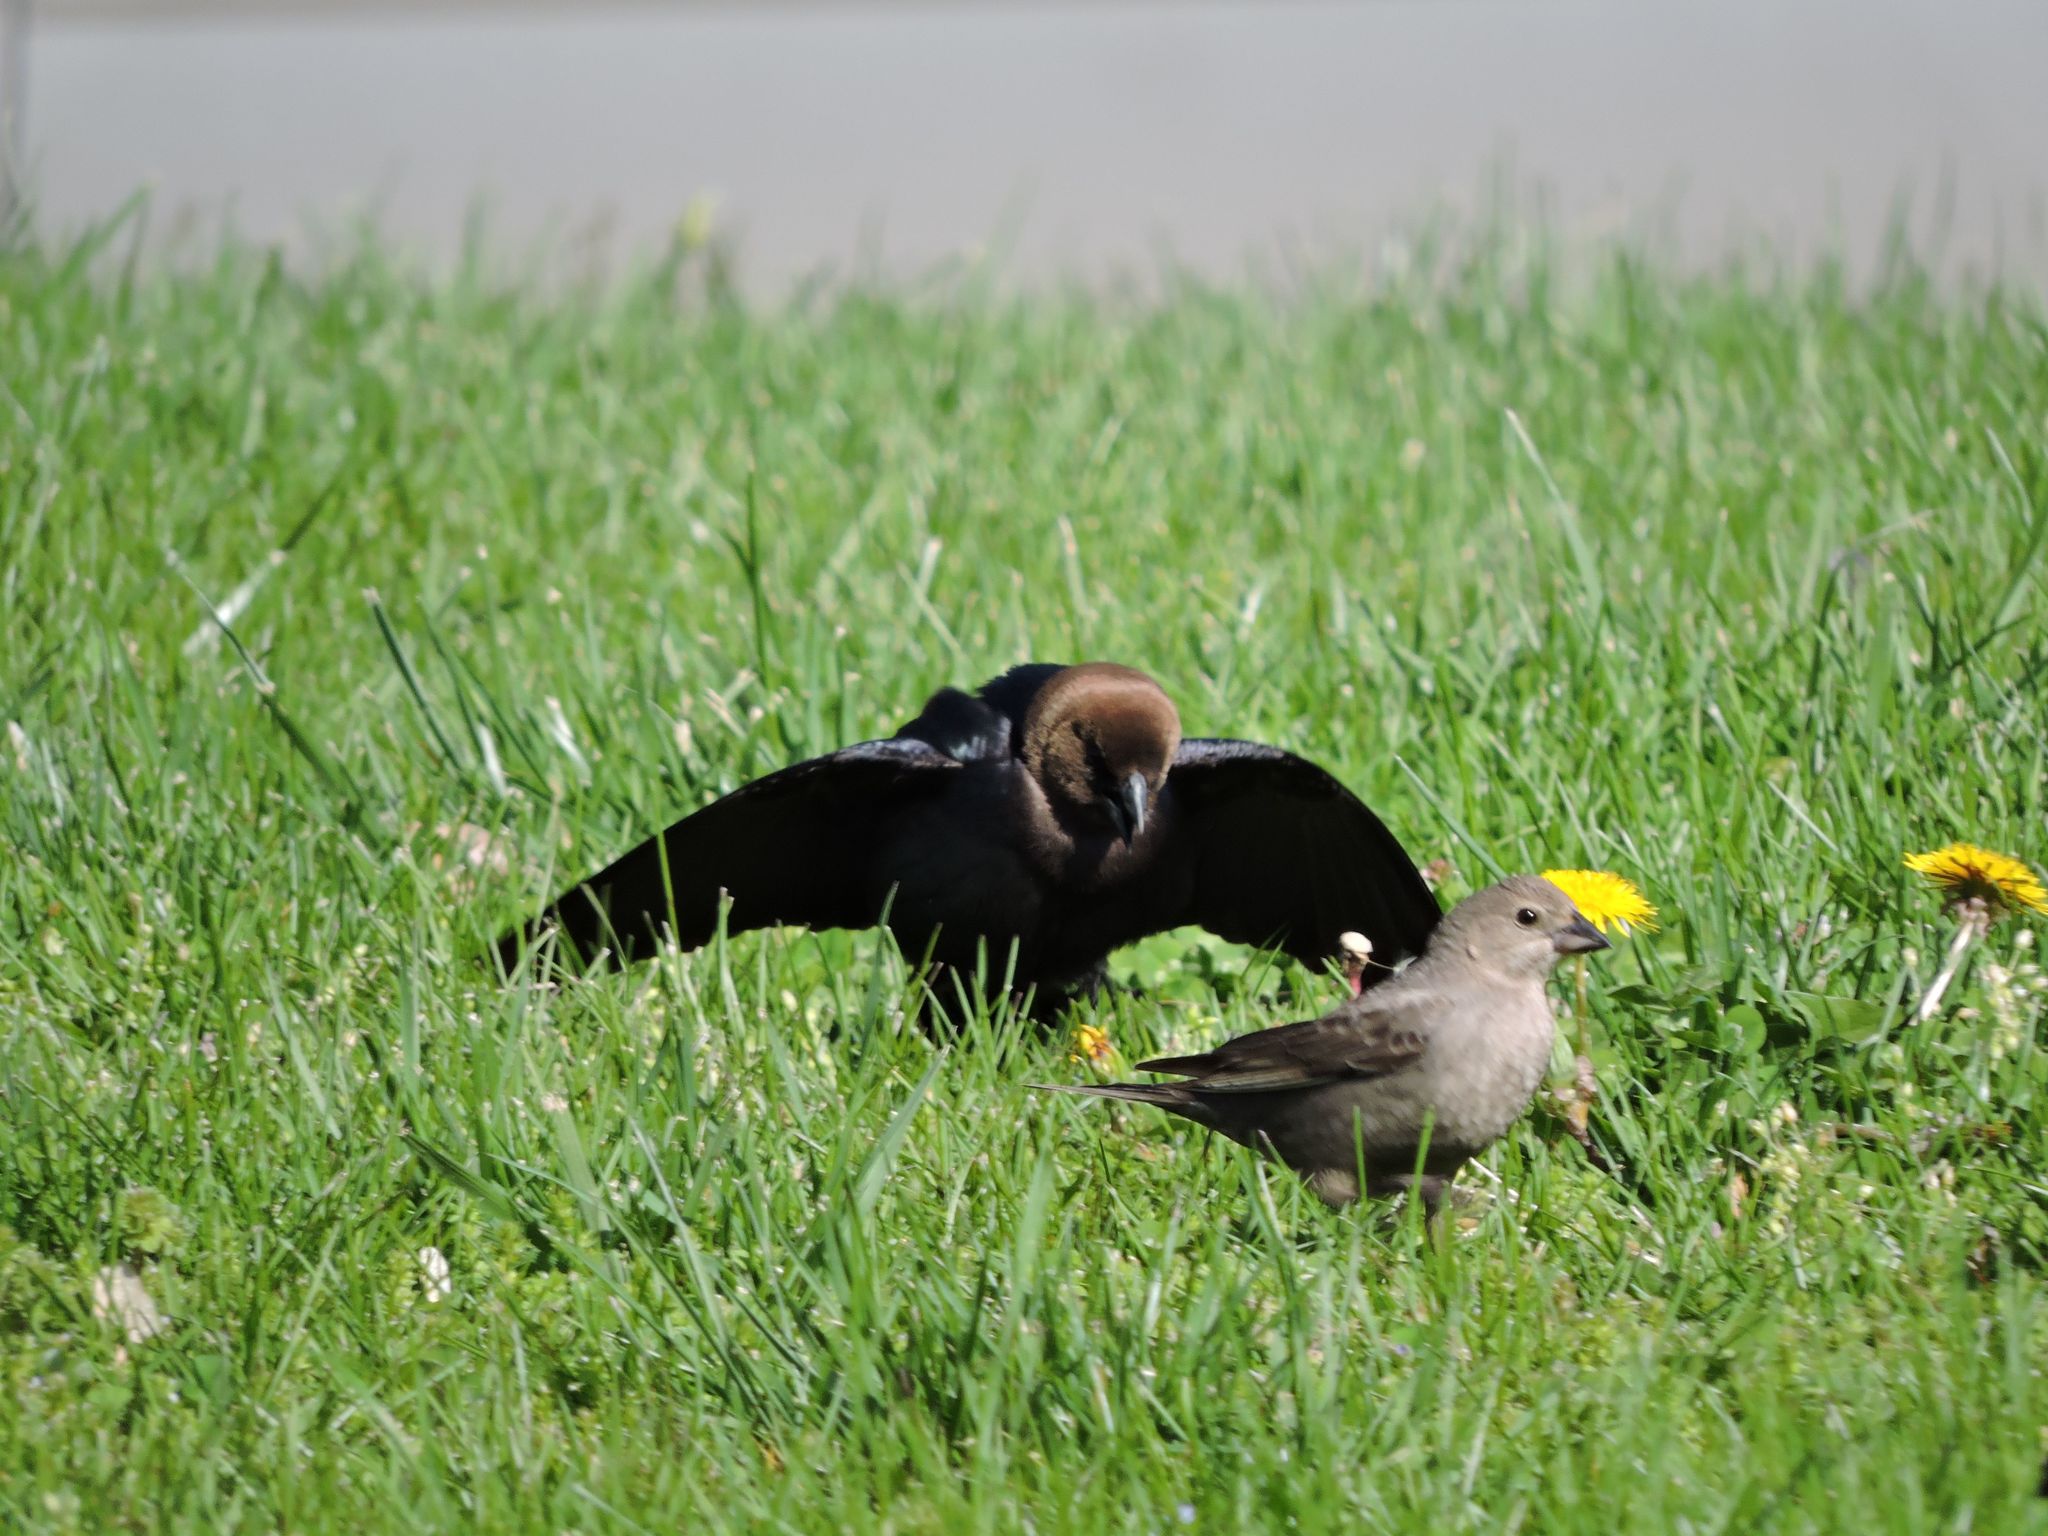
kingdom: Animalia
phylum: Chordata
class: Aves
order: Passeriformes
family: Icteridae
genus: Molothrus
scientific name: Molothrus ater
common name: Brown-headed cowbird
